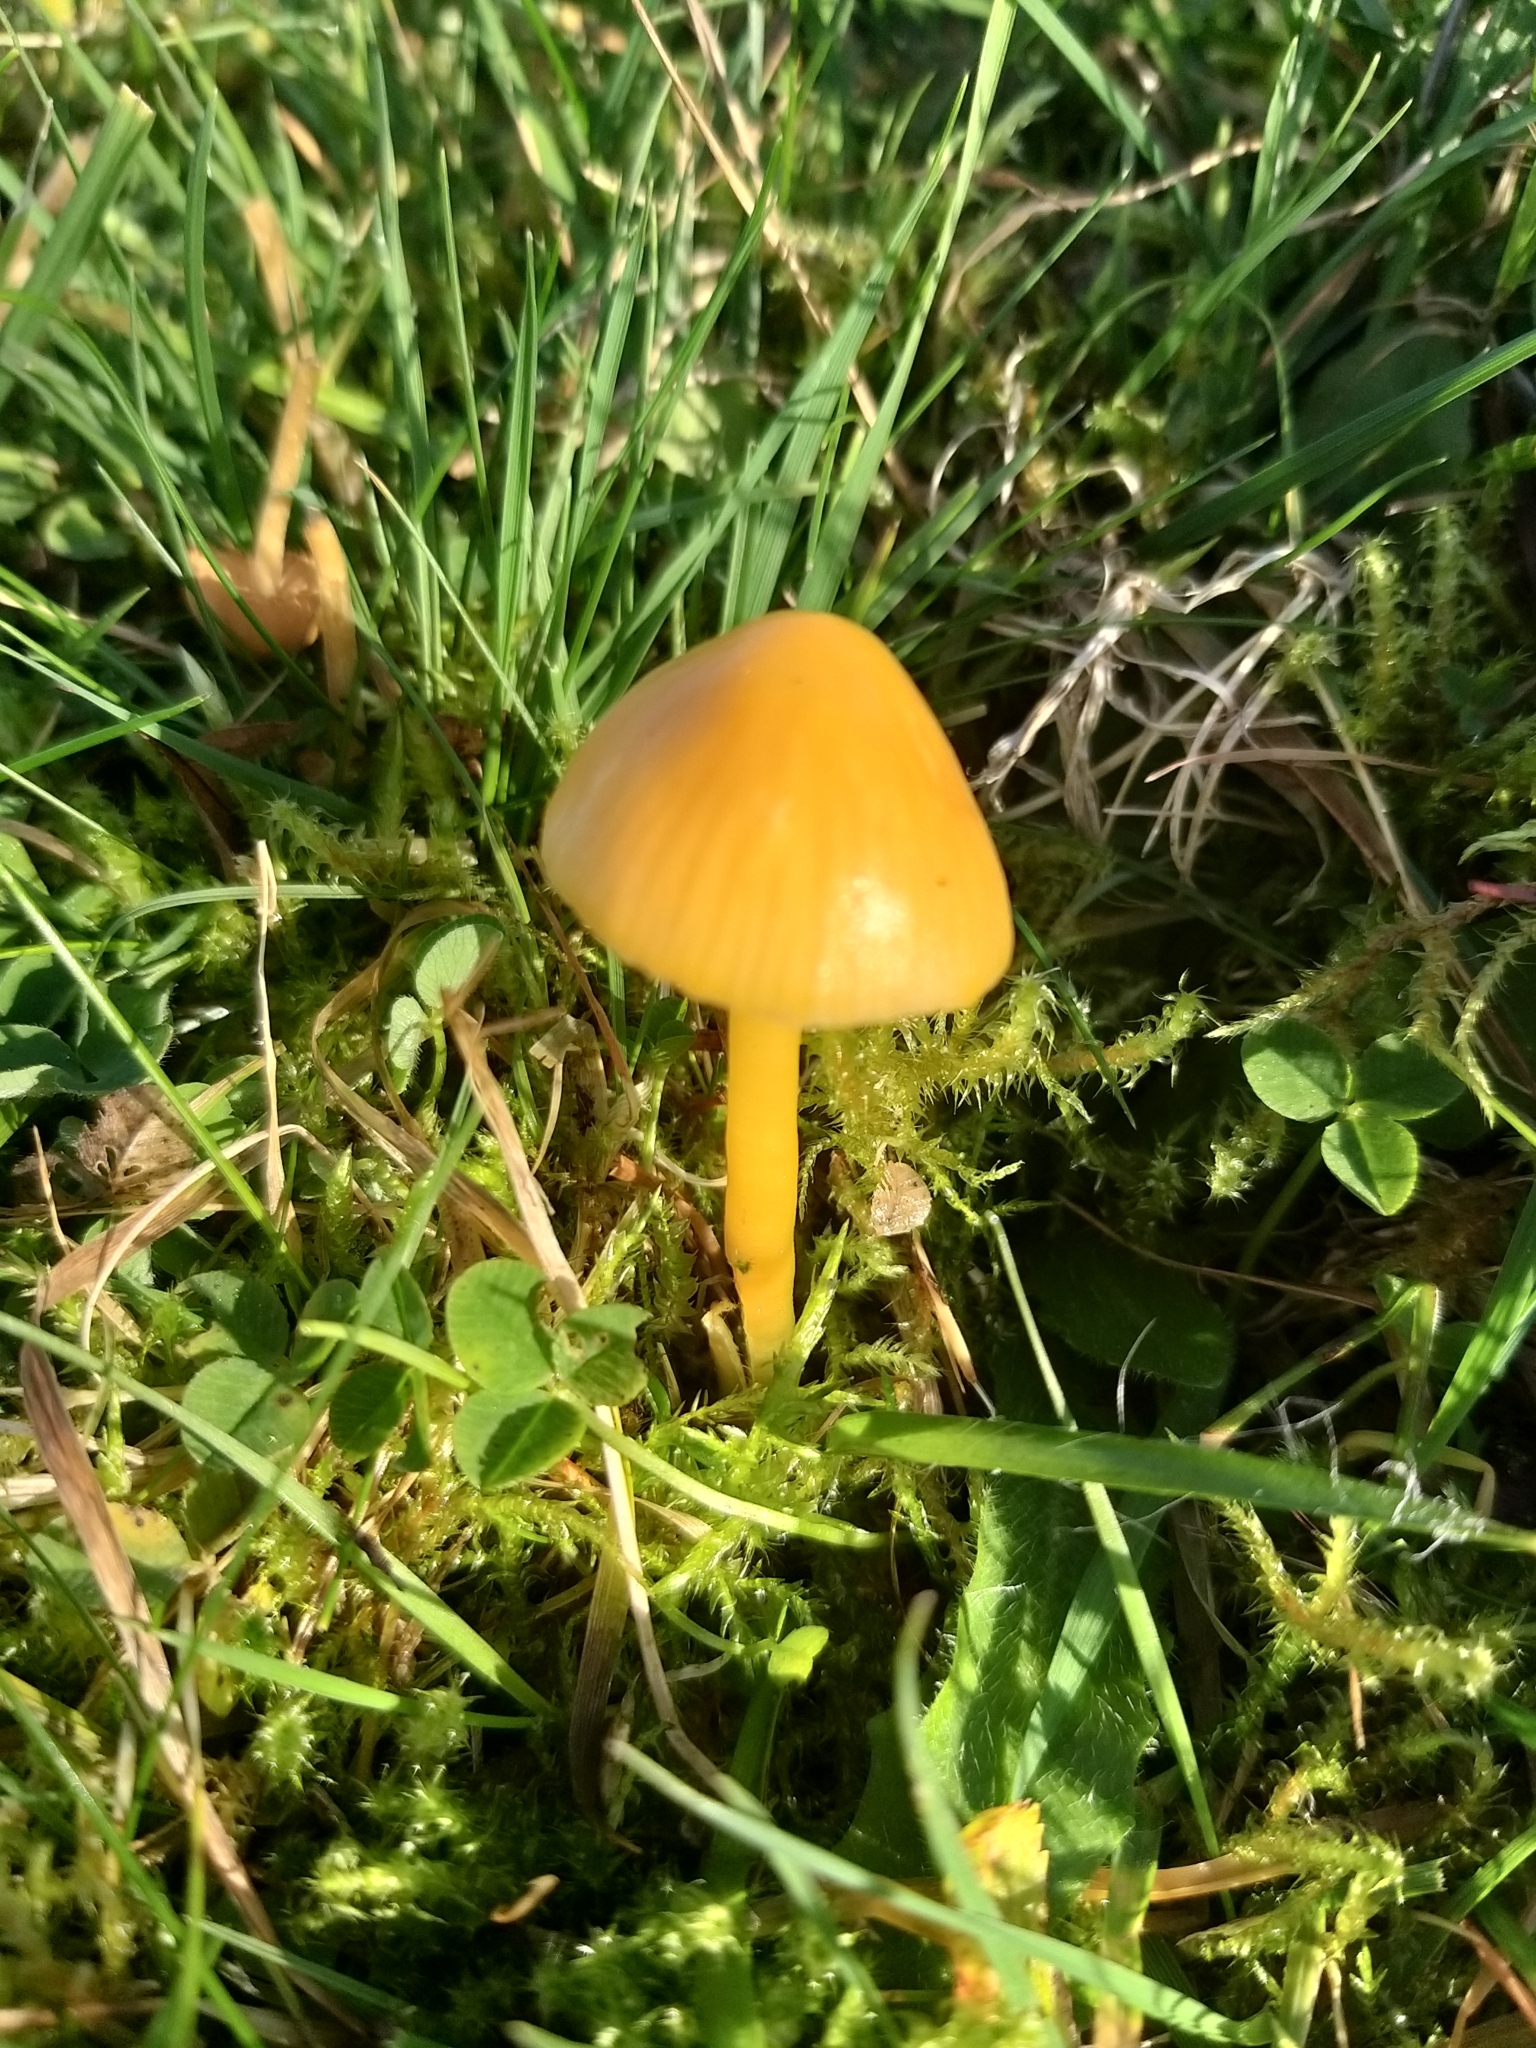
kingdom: Fungi
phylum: Basidiomycota
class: Agaricomycetes
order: Agaricales
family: Hygrophoraceae
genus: Gliophorus
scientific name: Gliophorus psittacinus
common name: Parrot wax-cap
